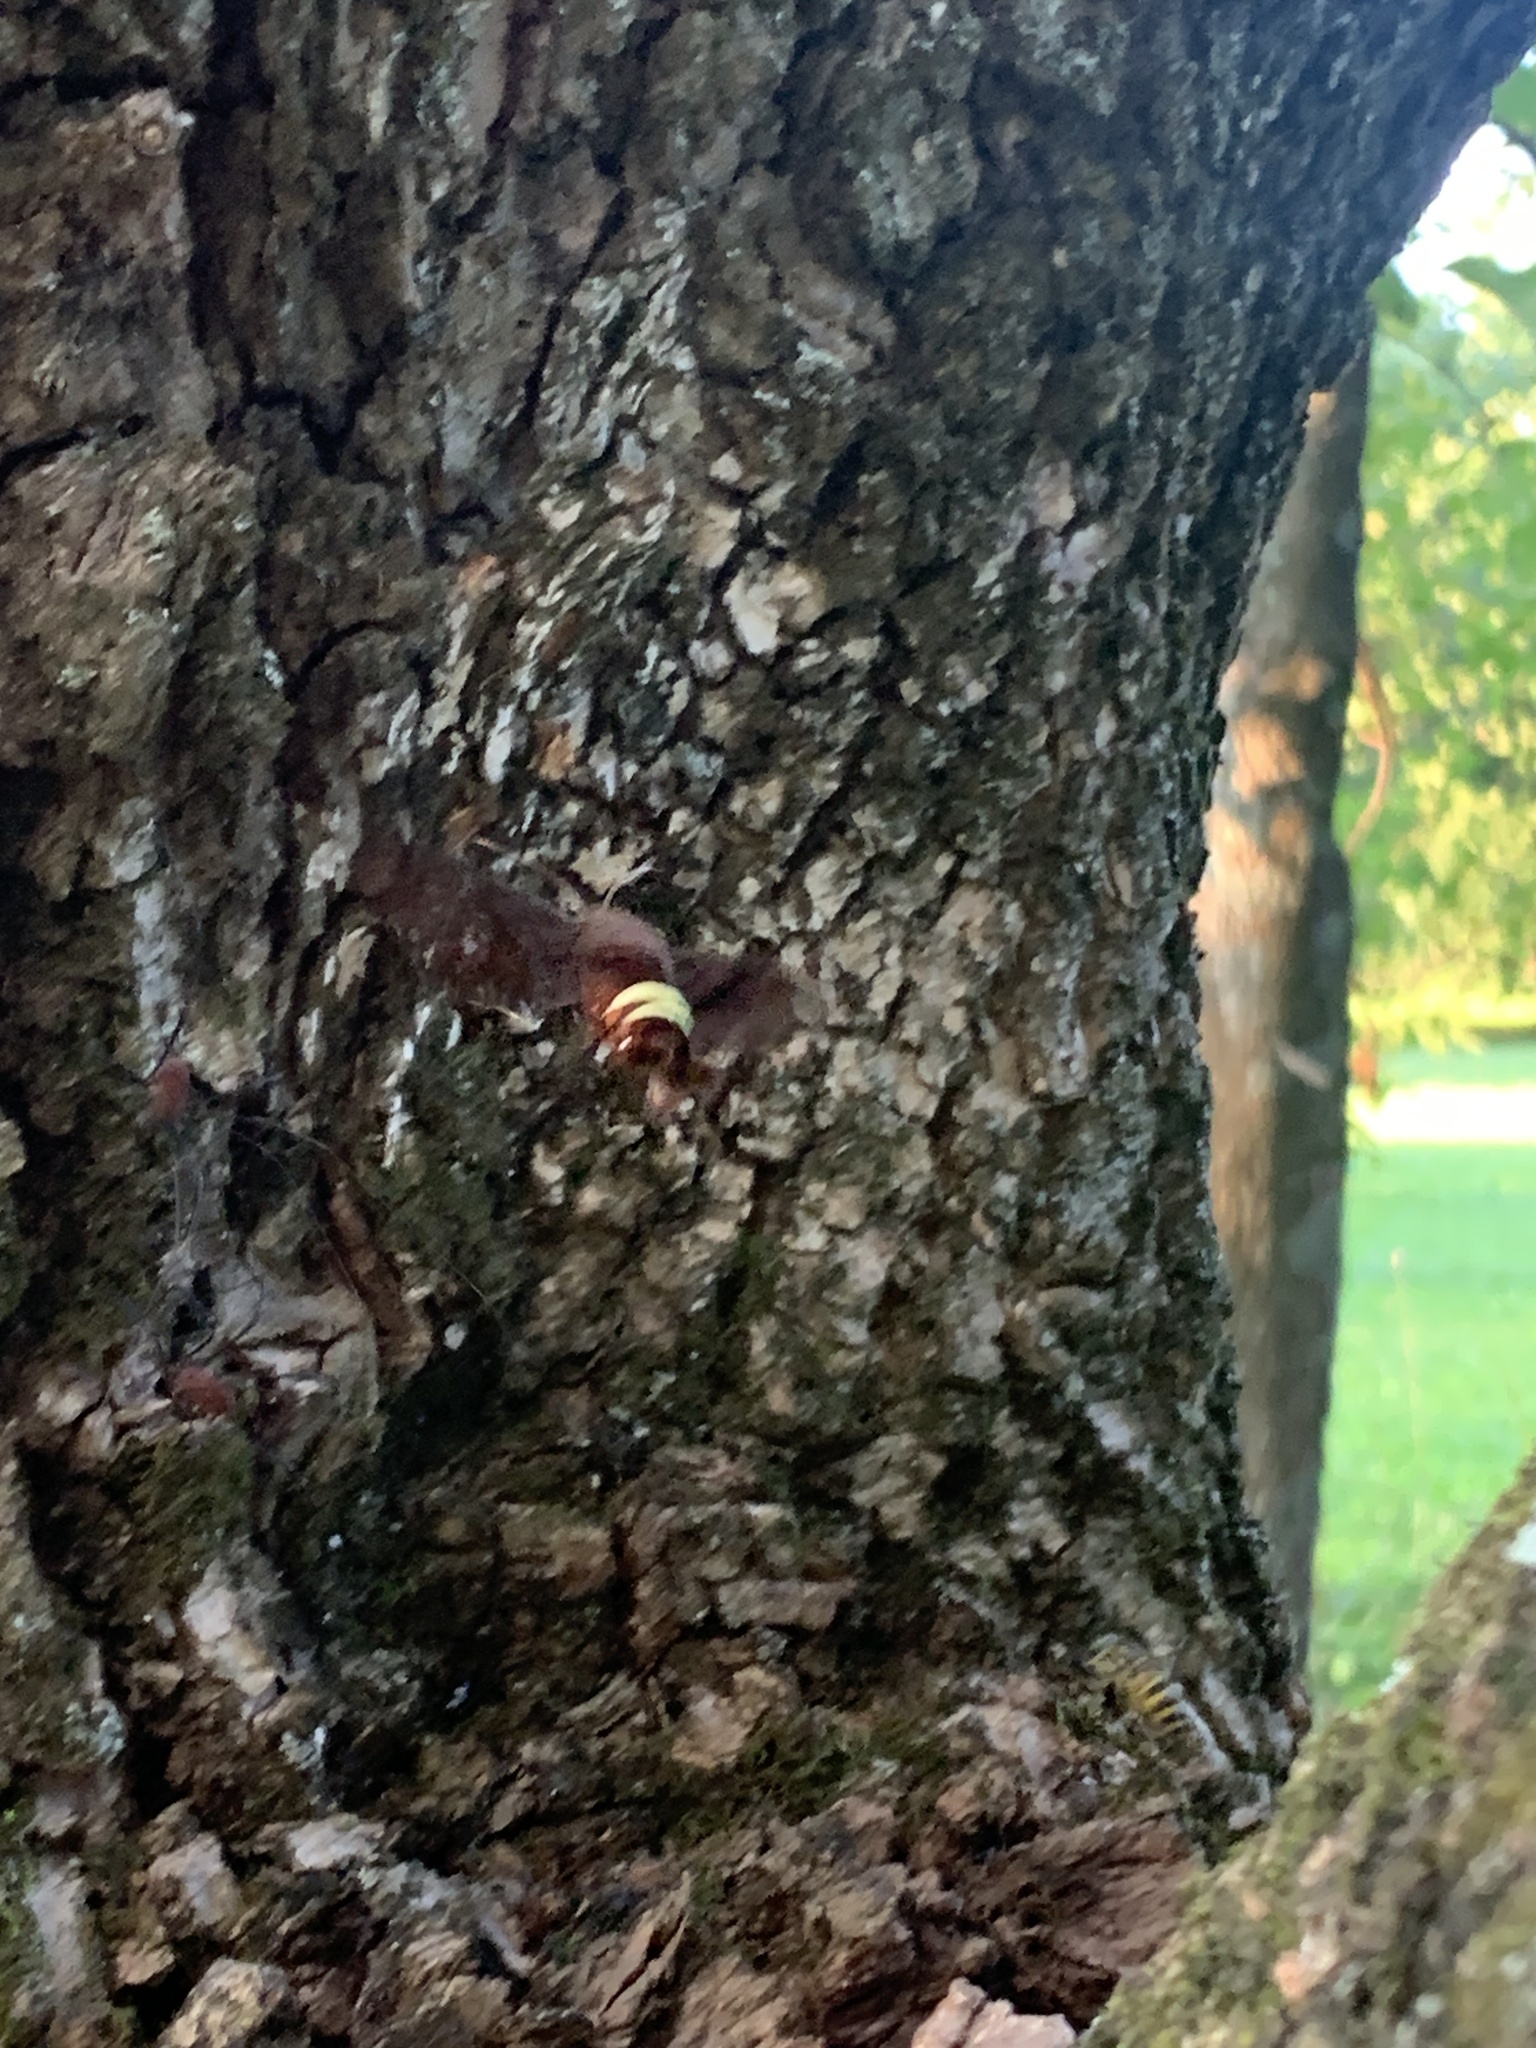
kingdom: Animalia
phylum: Arthropoda
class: Insecta
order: Lepidoptera
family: Sphingidae
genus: Amphion
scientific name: Amphion floridensis
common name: Nessus sphinx
